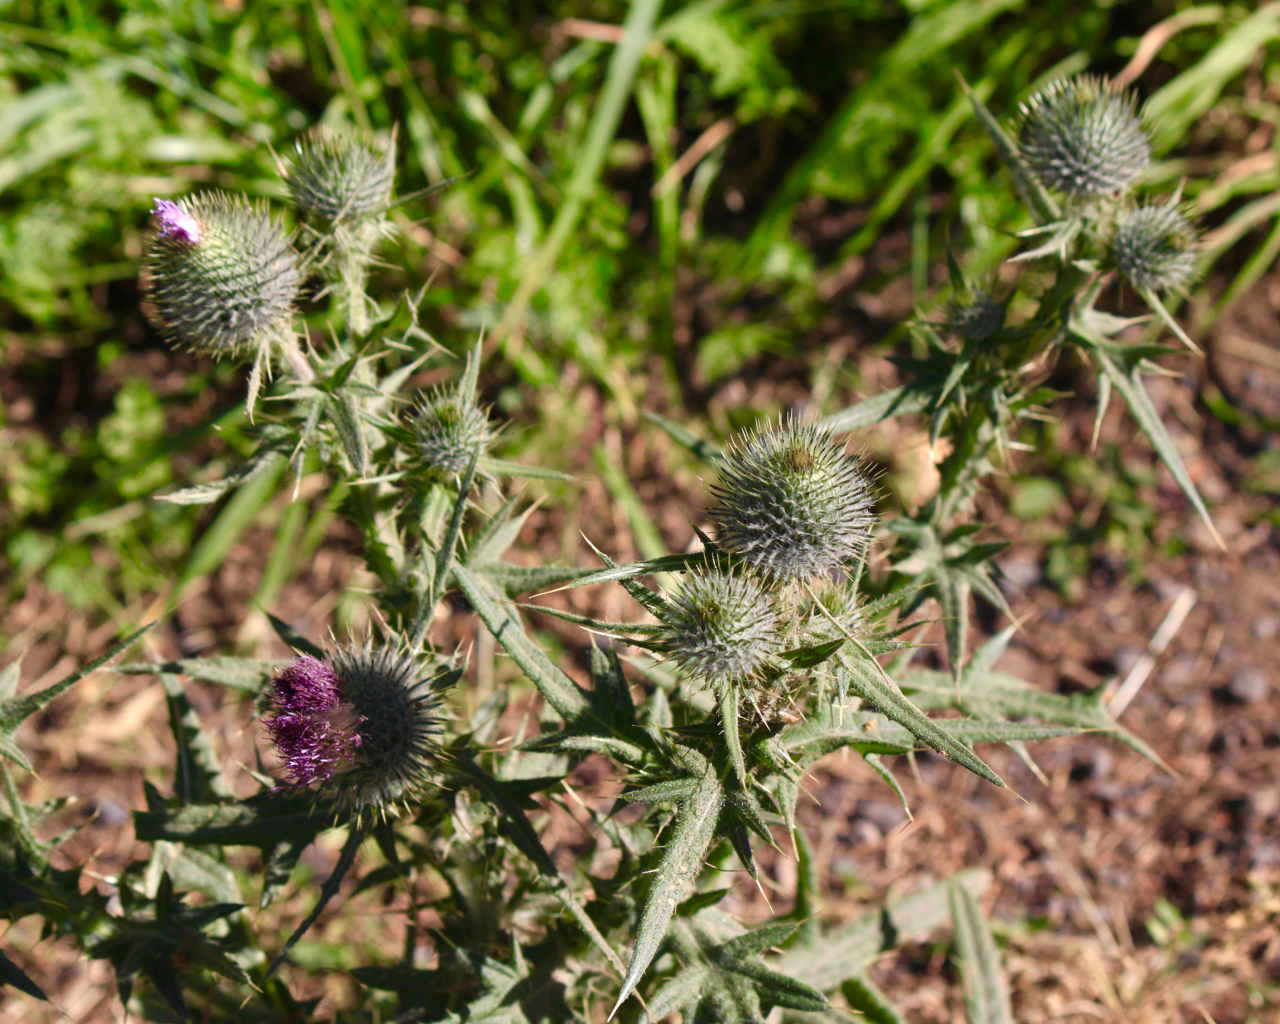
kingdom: Plantae
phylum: Tracheophyta
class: Magnoliopsida
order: Asterales
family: Asteraceae
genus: Cirsium
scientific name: Cirsium vulgare
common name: Bull thistle
